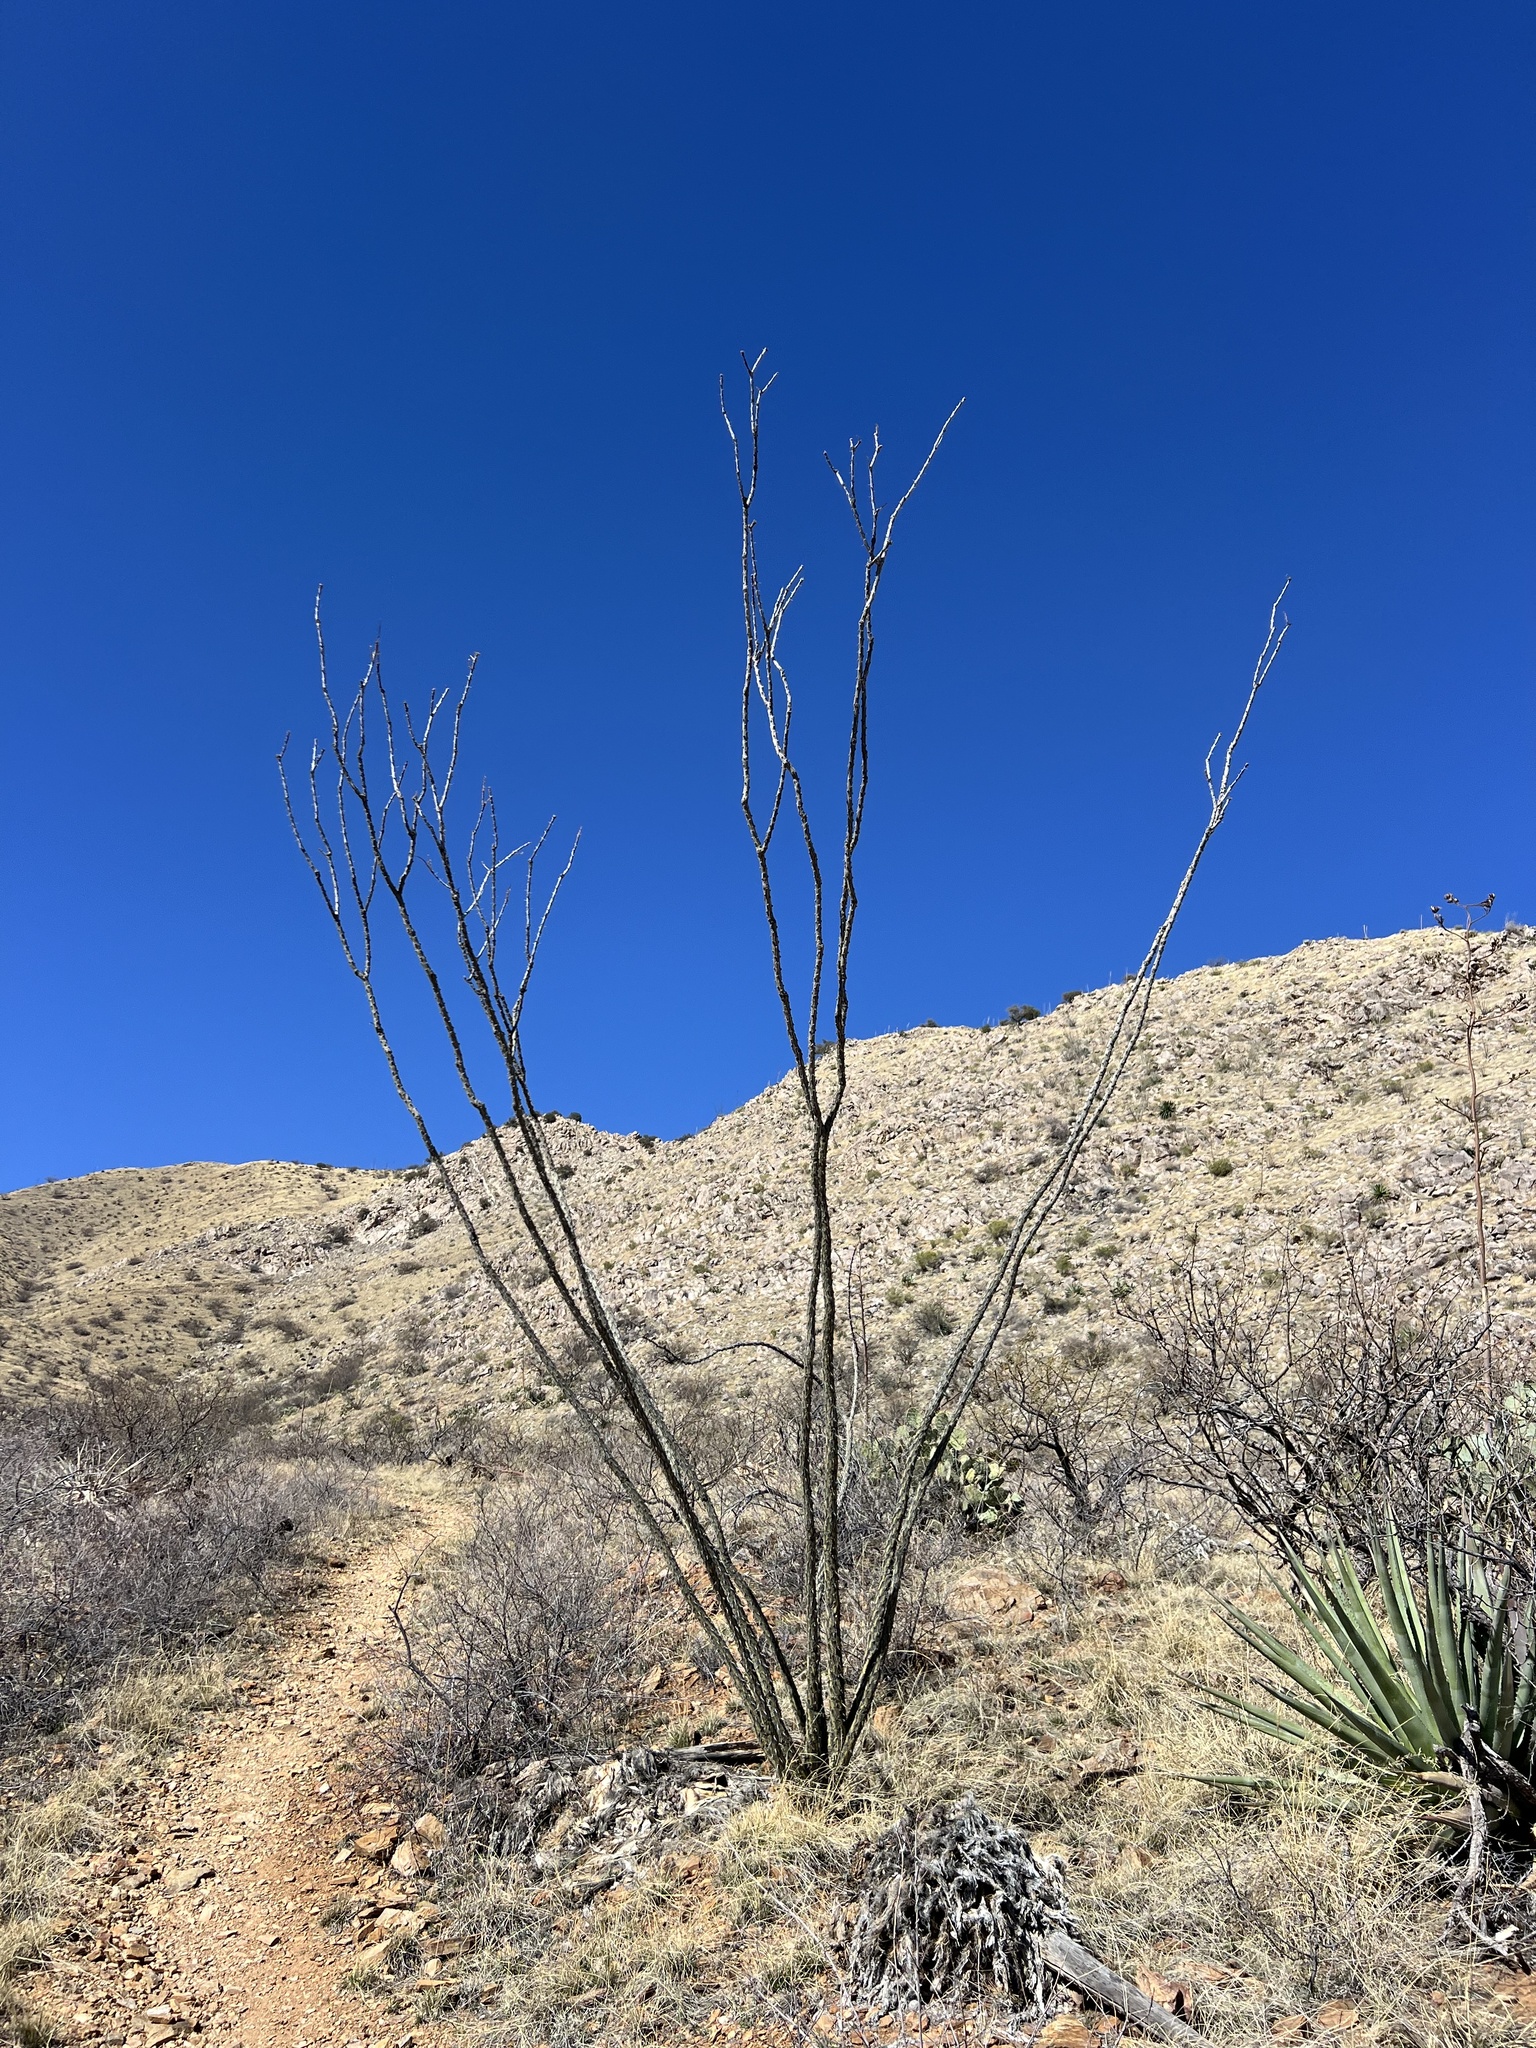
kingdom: Plantae
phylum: Tracheophyta
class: Magnoliopsida
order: Ericales
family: Fouquieriaceae
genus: Fouquieria
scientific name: Fouquieria splendens
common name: Vine-cactus
